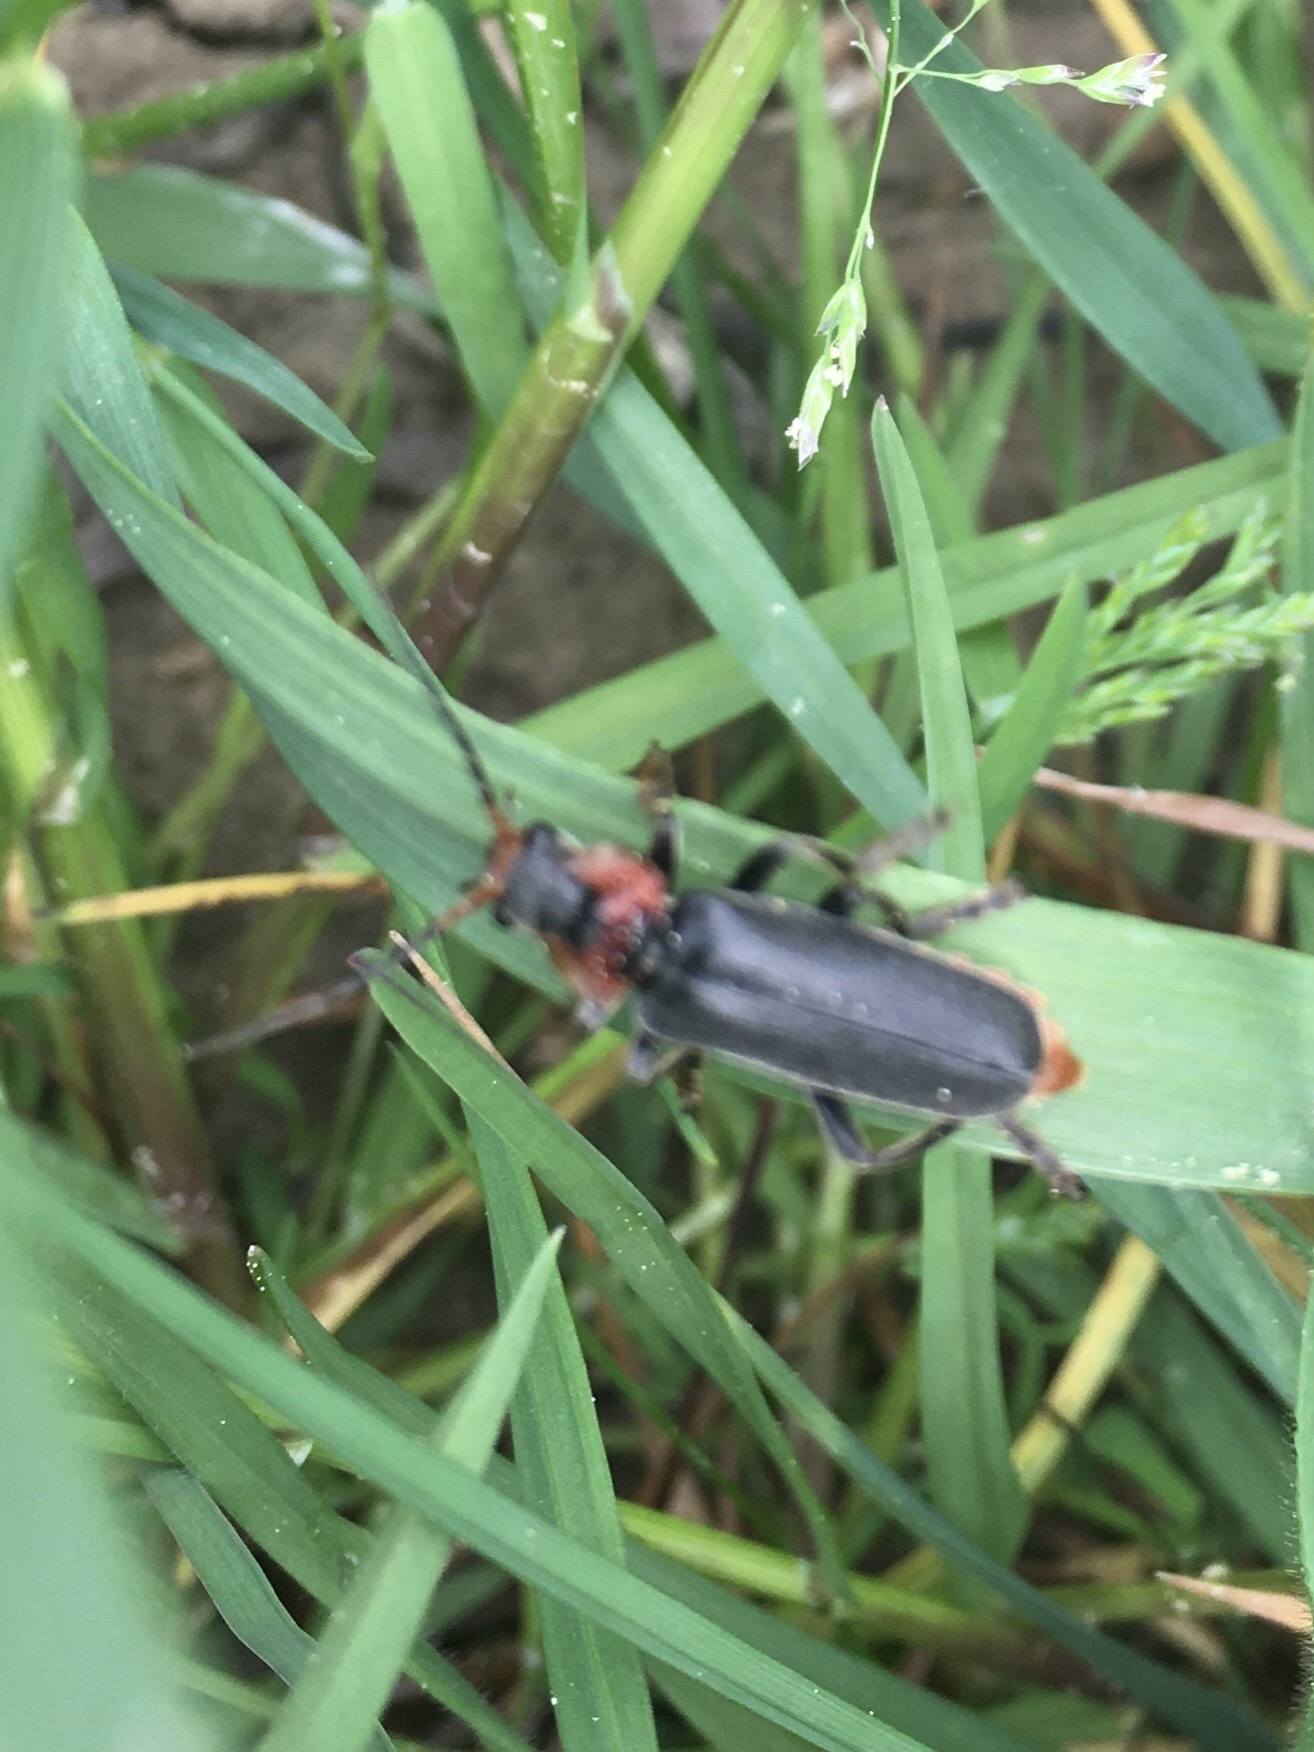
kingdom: Animalia
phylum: Arthropoda
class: Insecta
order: Coleoptera
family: Cantharidae
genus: Cantharis
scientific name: Cantharis fusca
